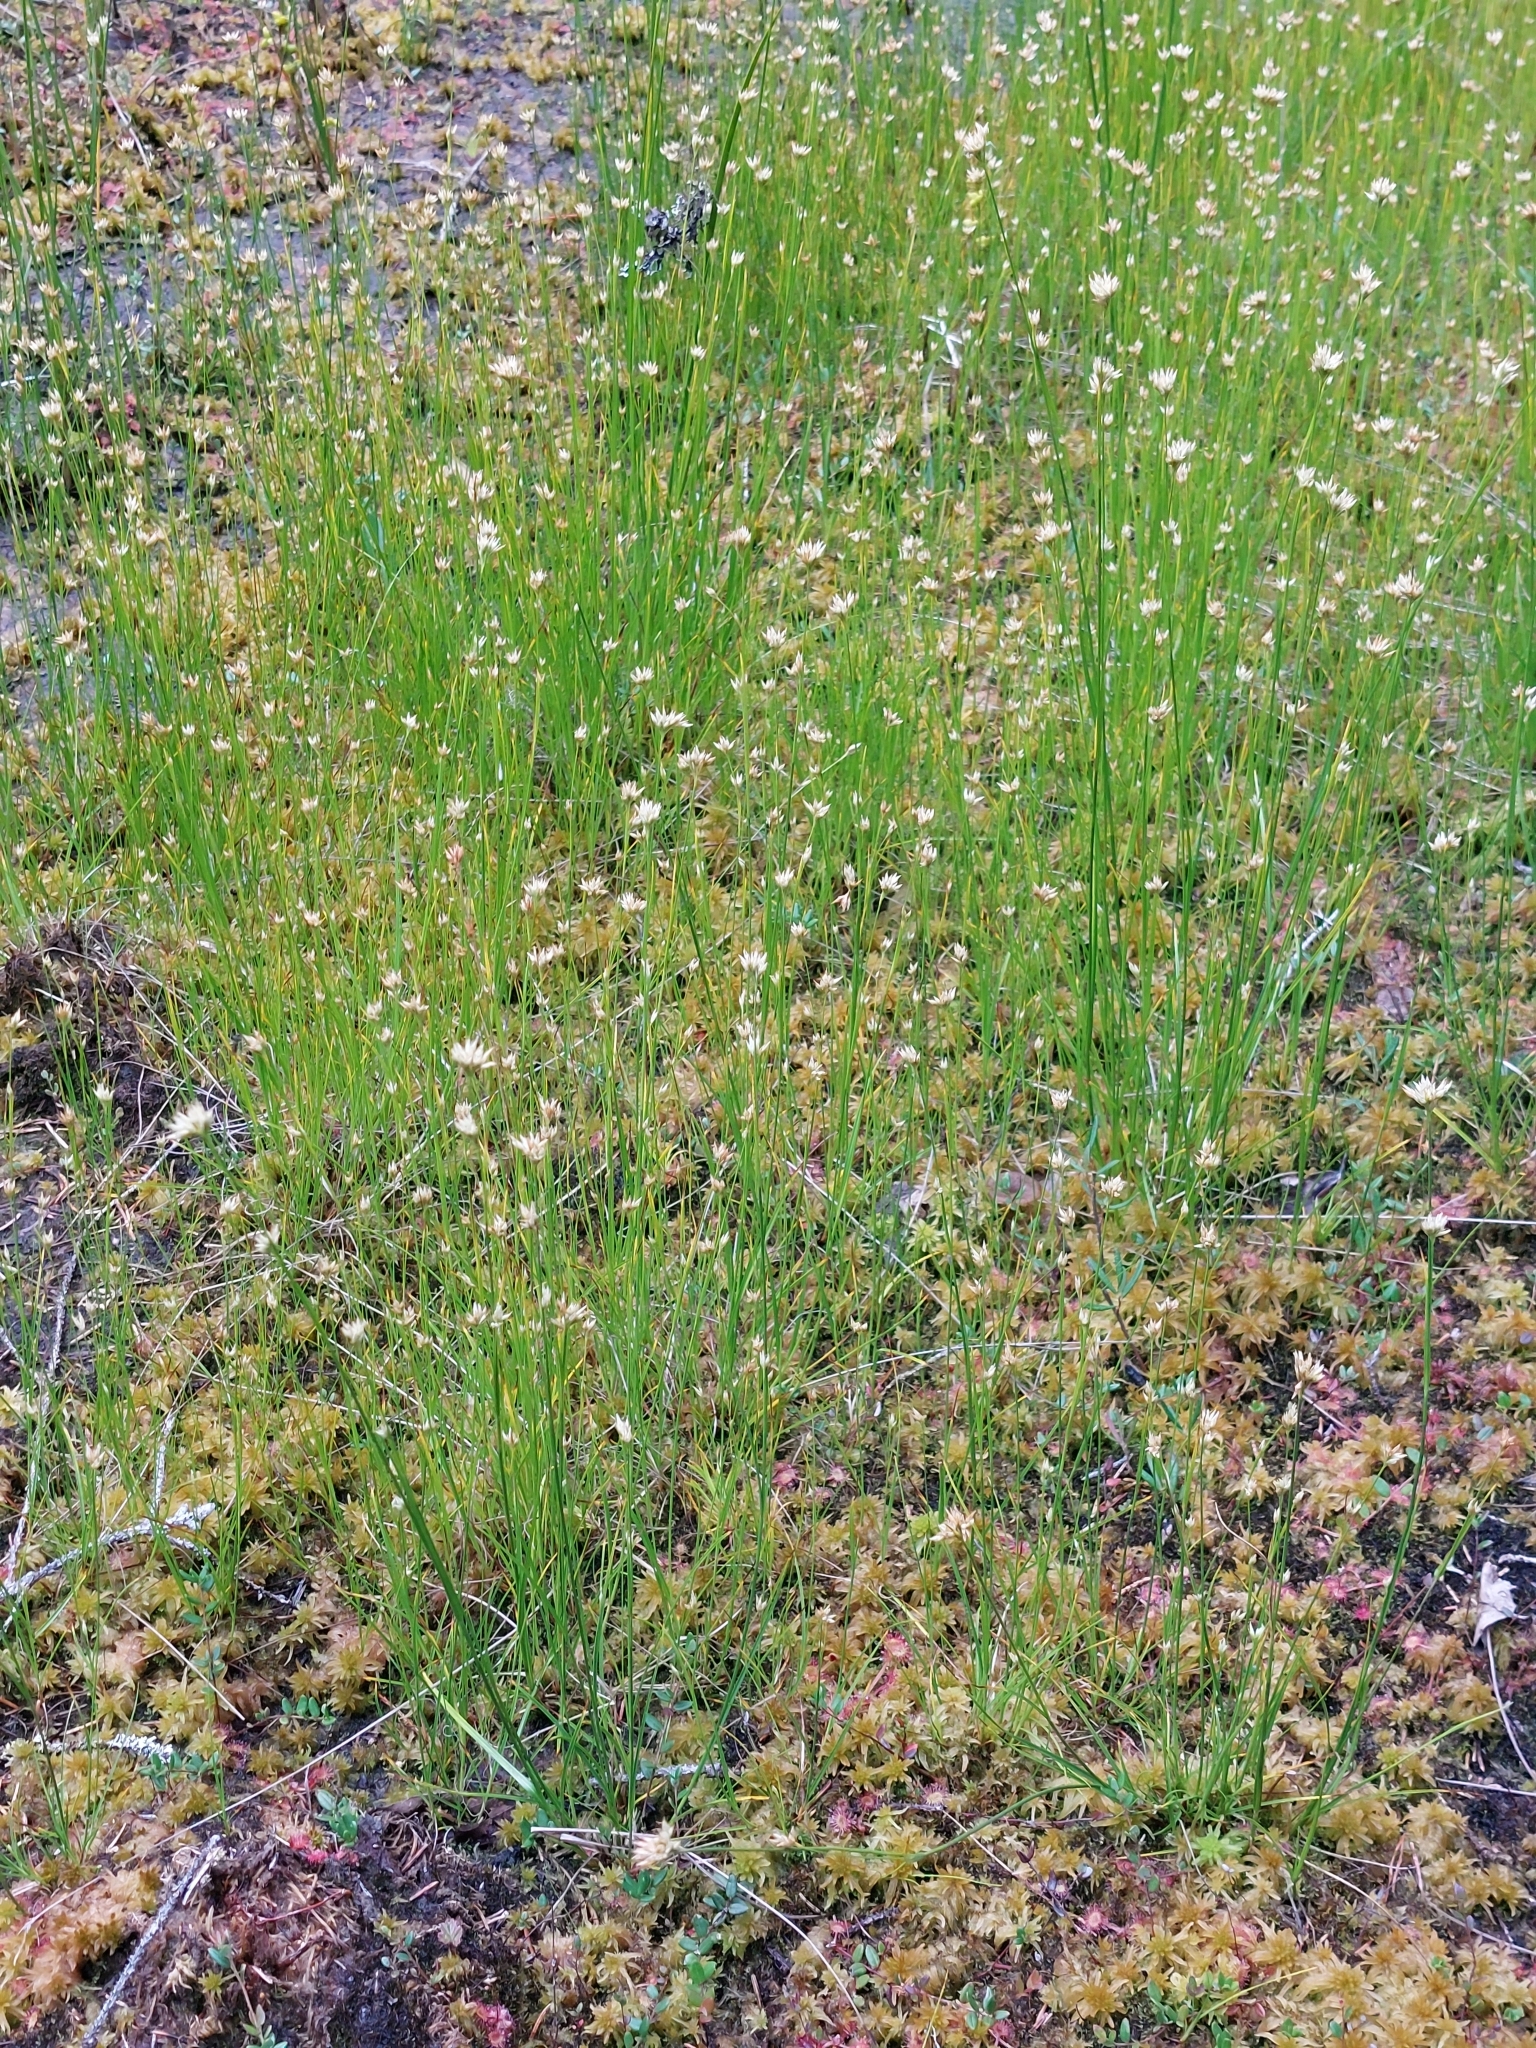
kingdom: Plantae
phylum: Tracheophyta
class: Liliopsida
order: Poales
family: Cyperaceae
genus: Rhynchospora
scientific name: Rhynchospora alba
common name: White beak-sedge
